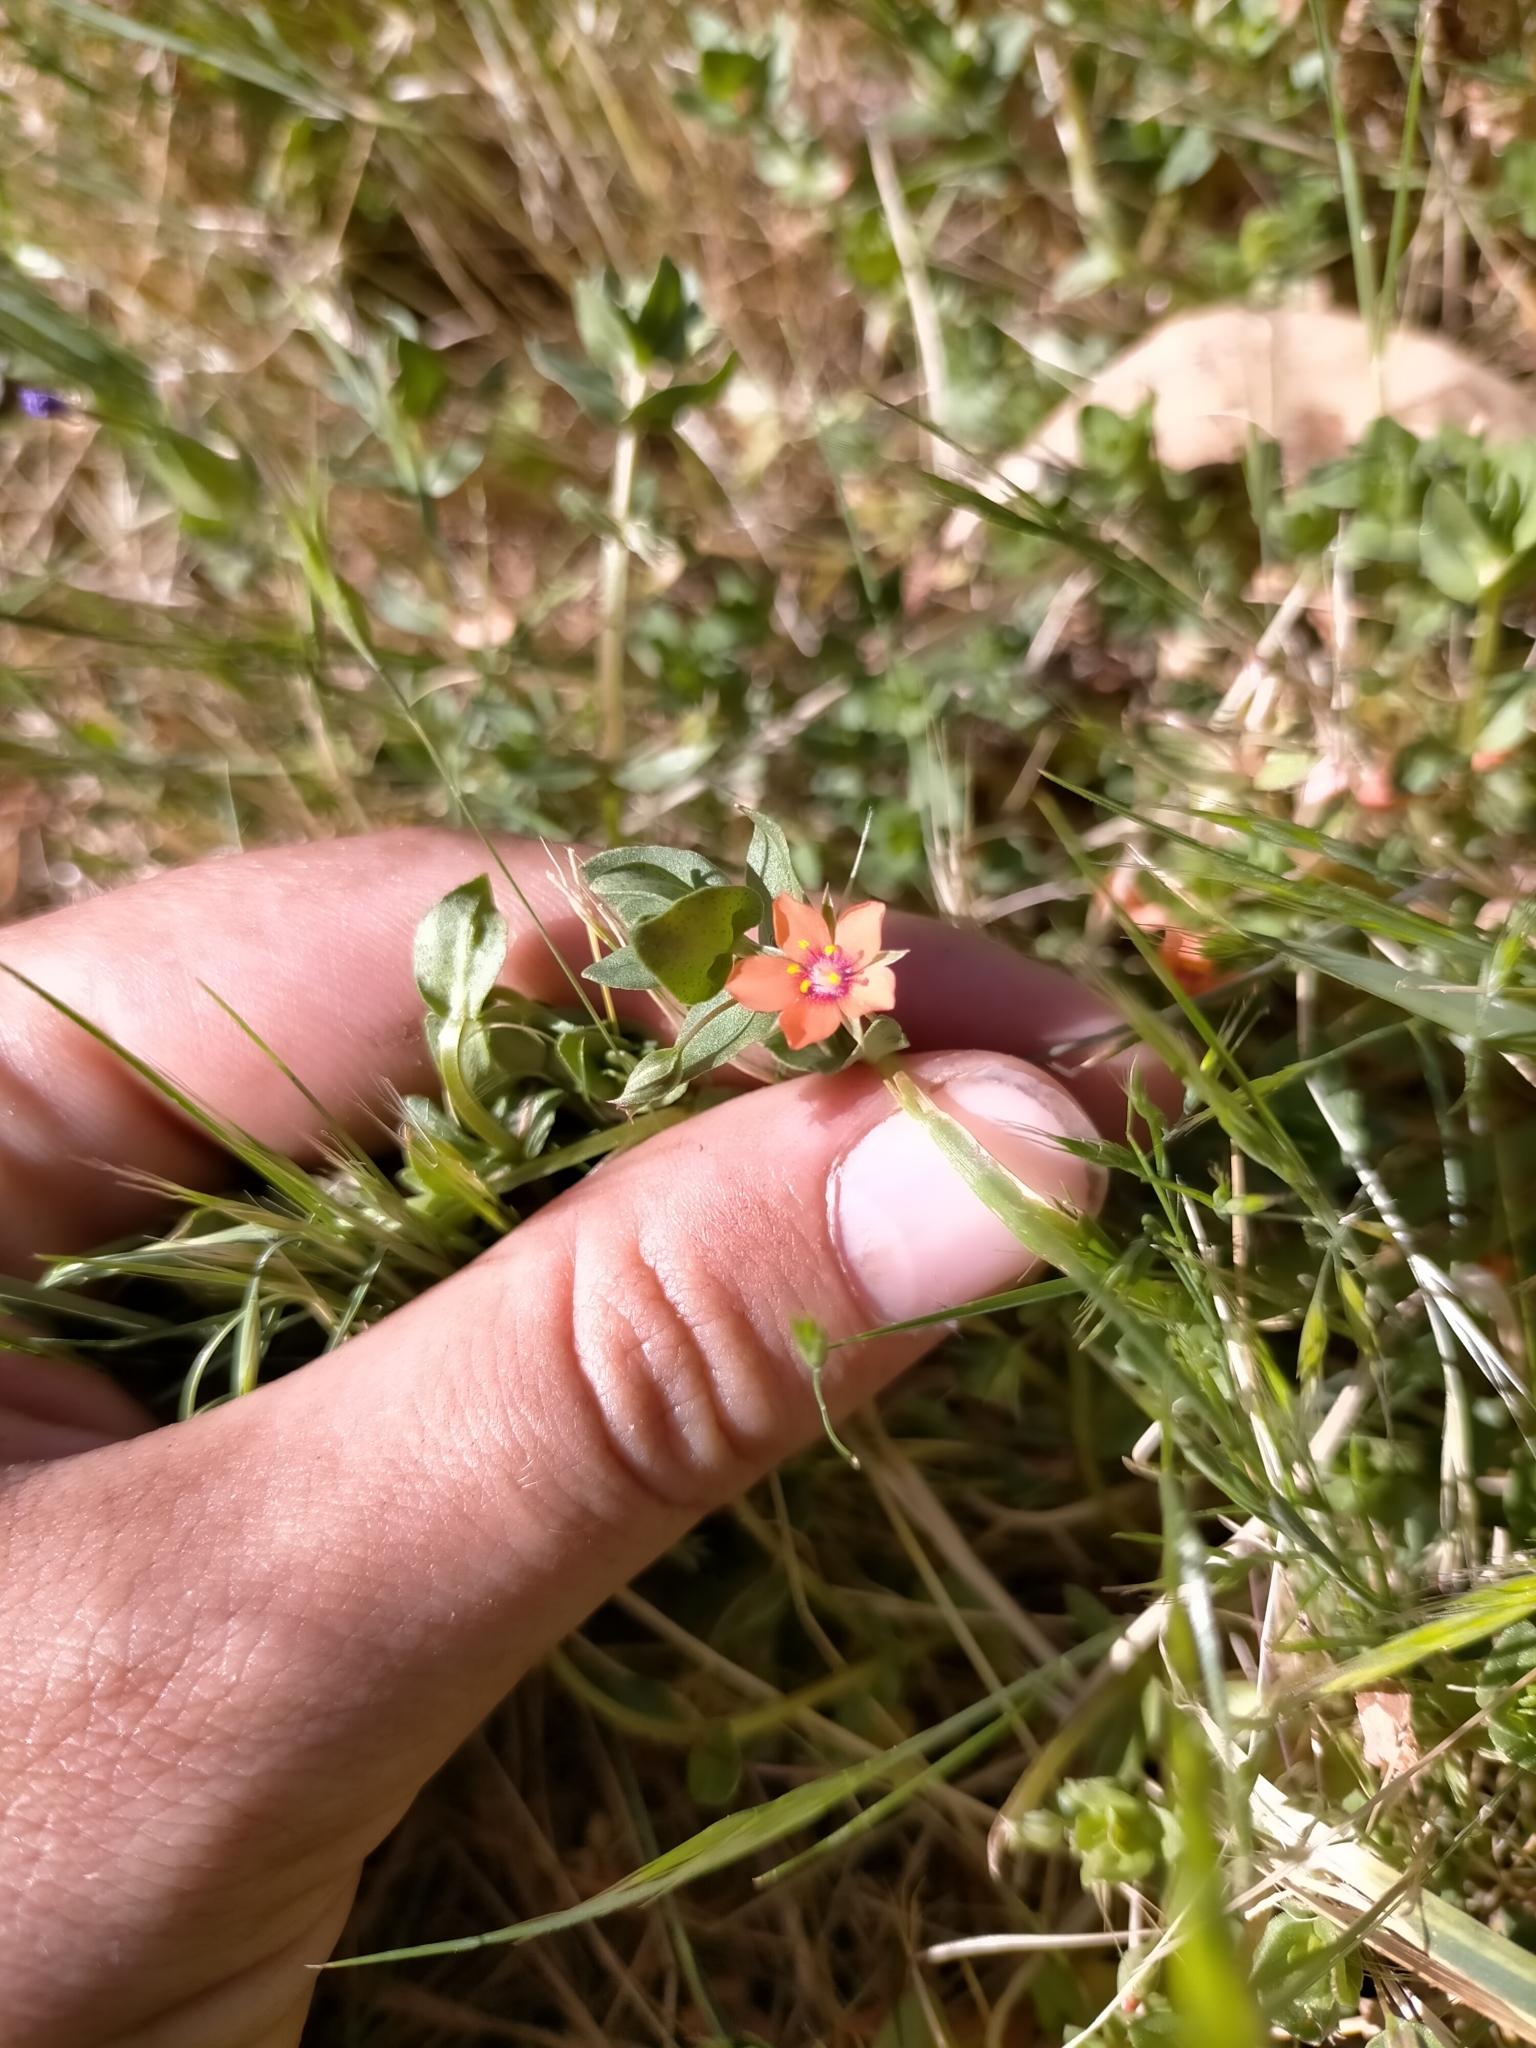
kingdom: Plantae
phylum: Tracheophyta
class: Magnoliopsida
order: Ericales
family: Primulaceae
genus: Lysimachia
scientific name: Lysimachia arvensis
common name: Scarlet pimpernel
